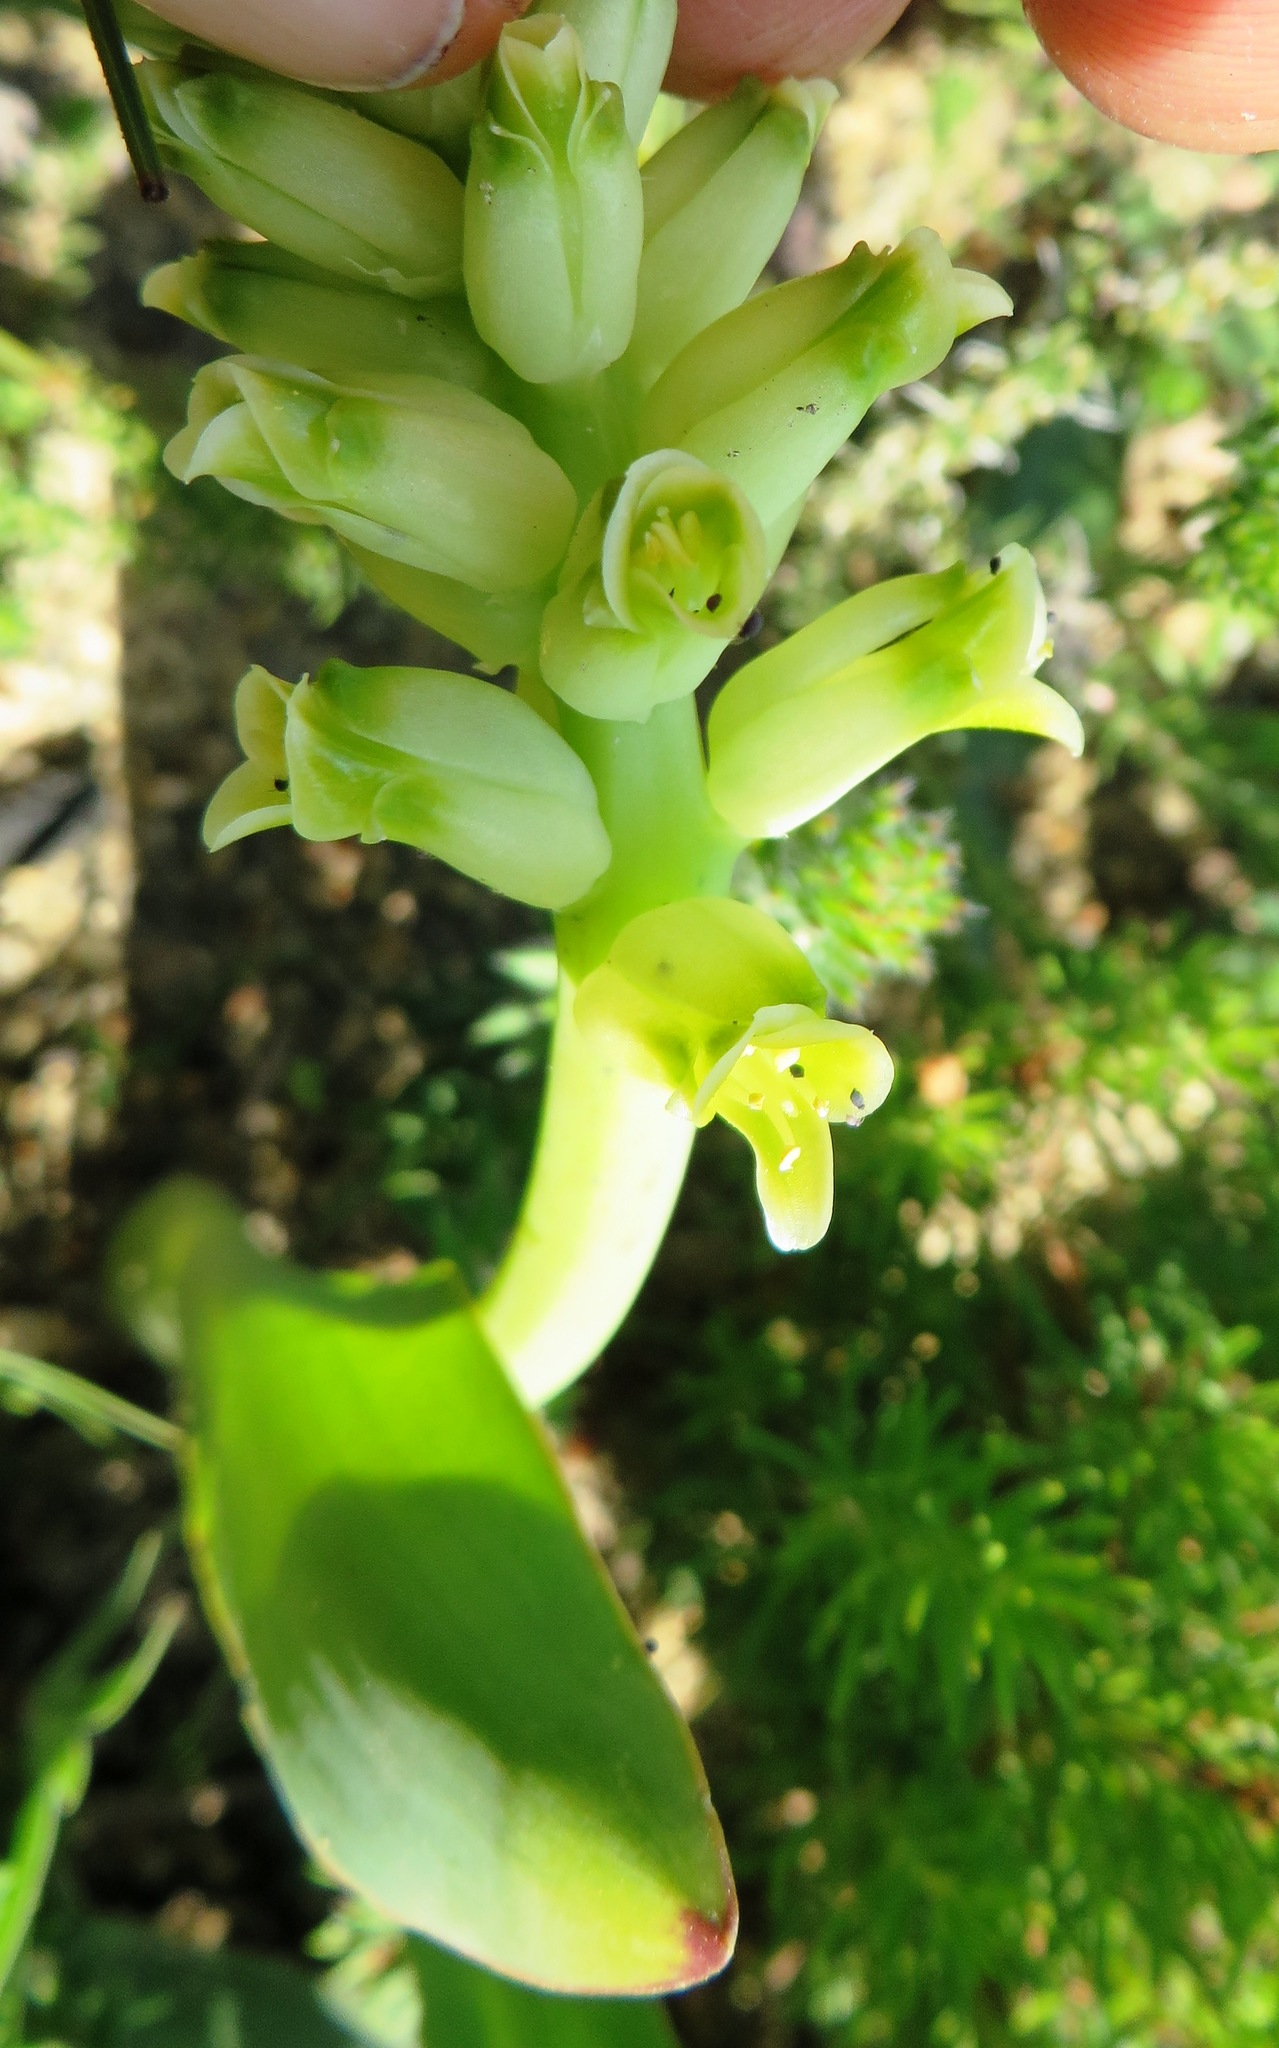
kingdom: Plantae
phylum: Tracheophyta
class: Liliopsida
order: Asparagales
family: Asparagaceae
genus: Lachenalia
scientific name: Lachenalia lutea
